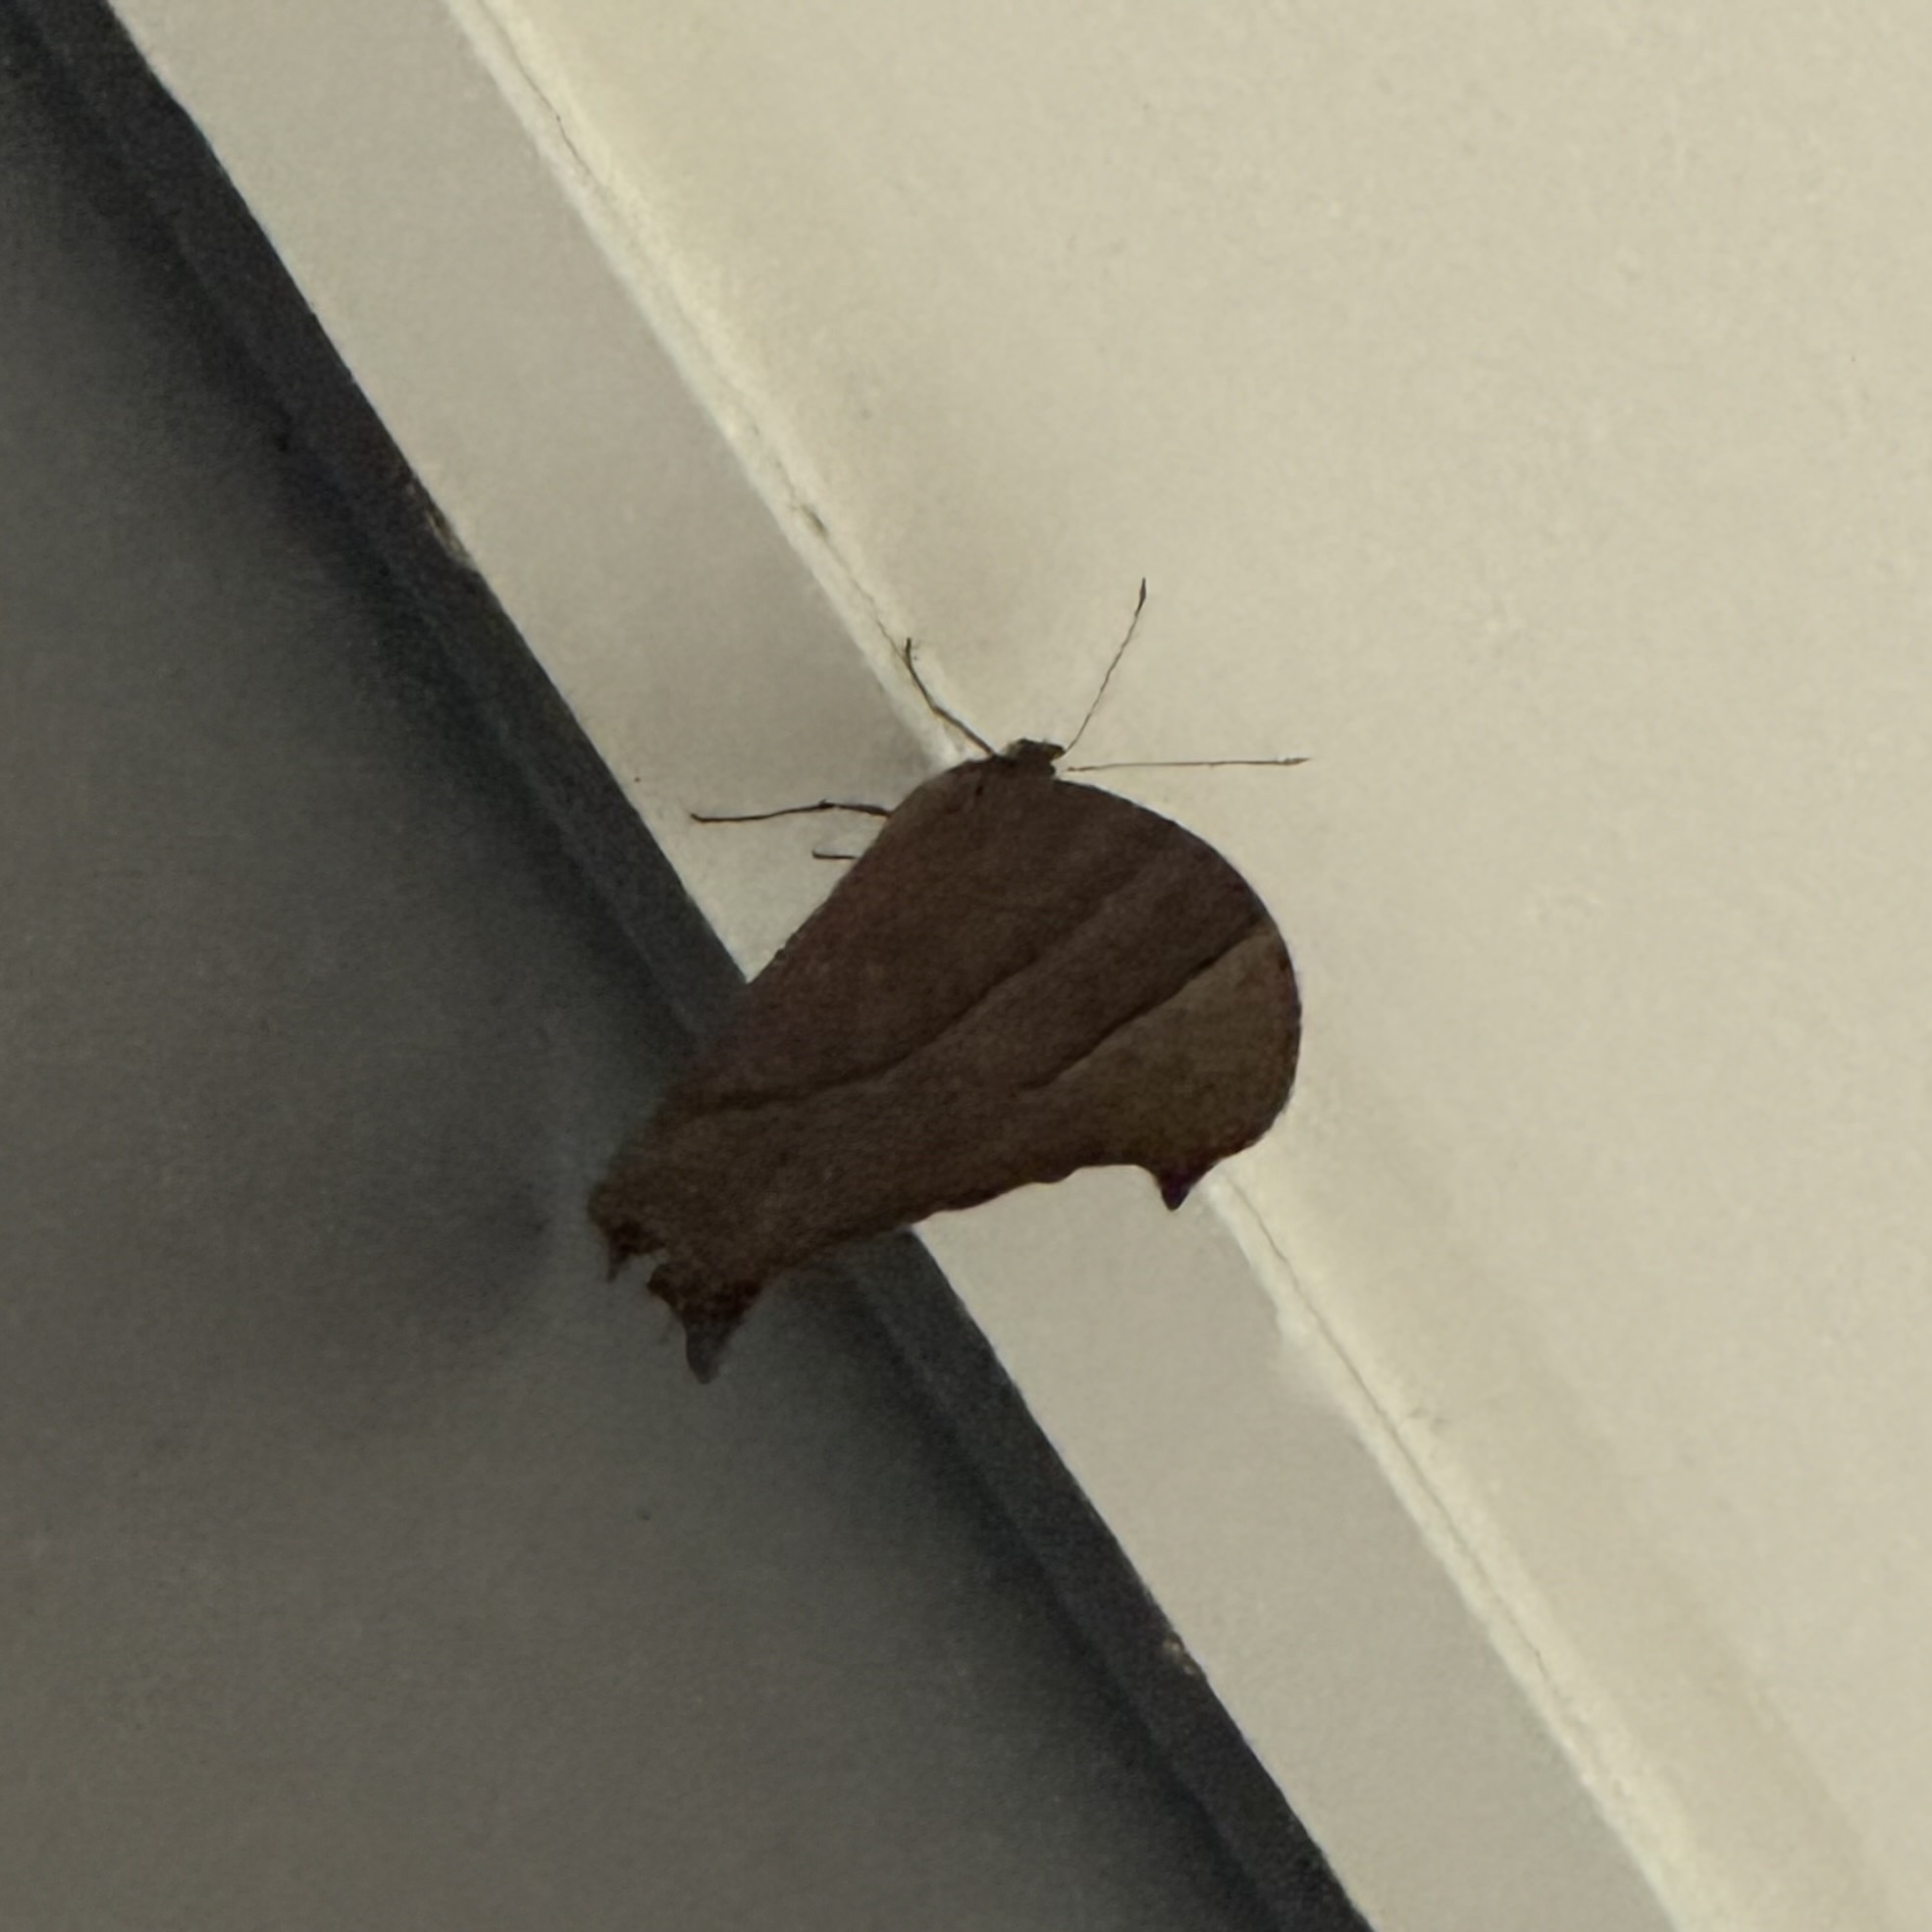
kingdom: Animalia
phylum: Arthropoda
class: Insecta
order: Lepidoptera
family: Nymphalidae
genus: Melanitis
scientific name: Melanitis leda
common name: Twilight brown
